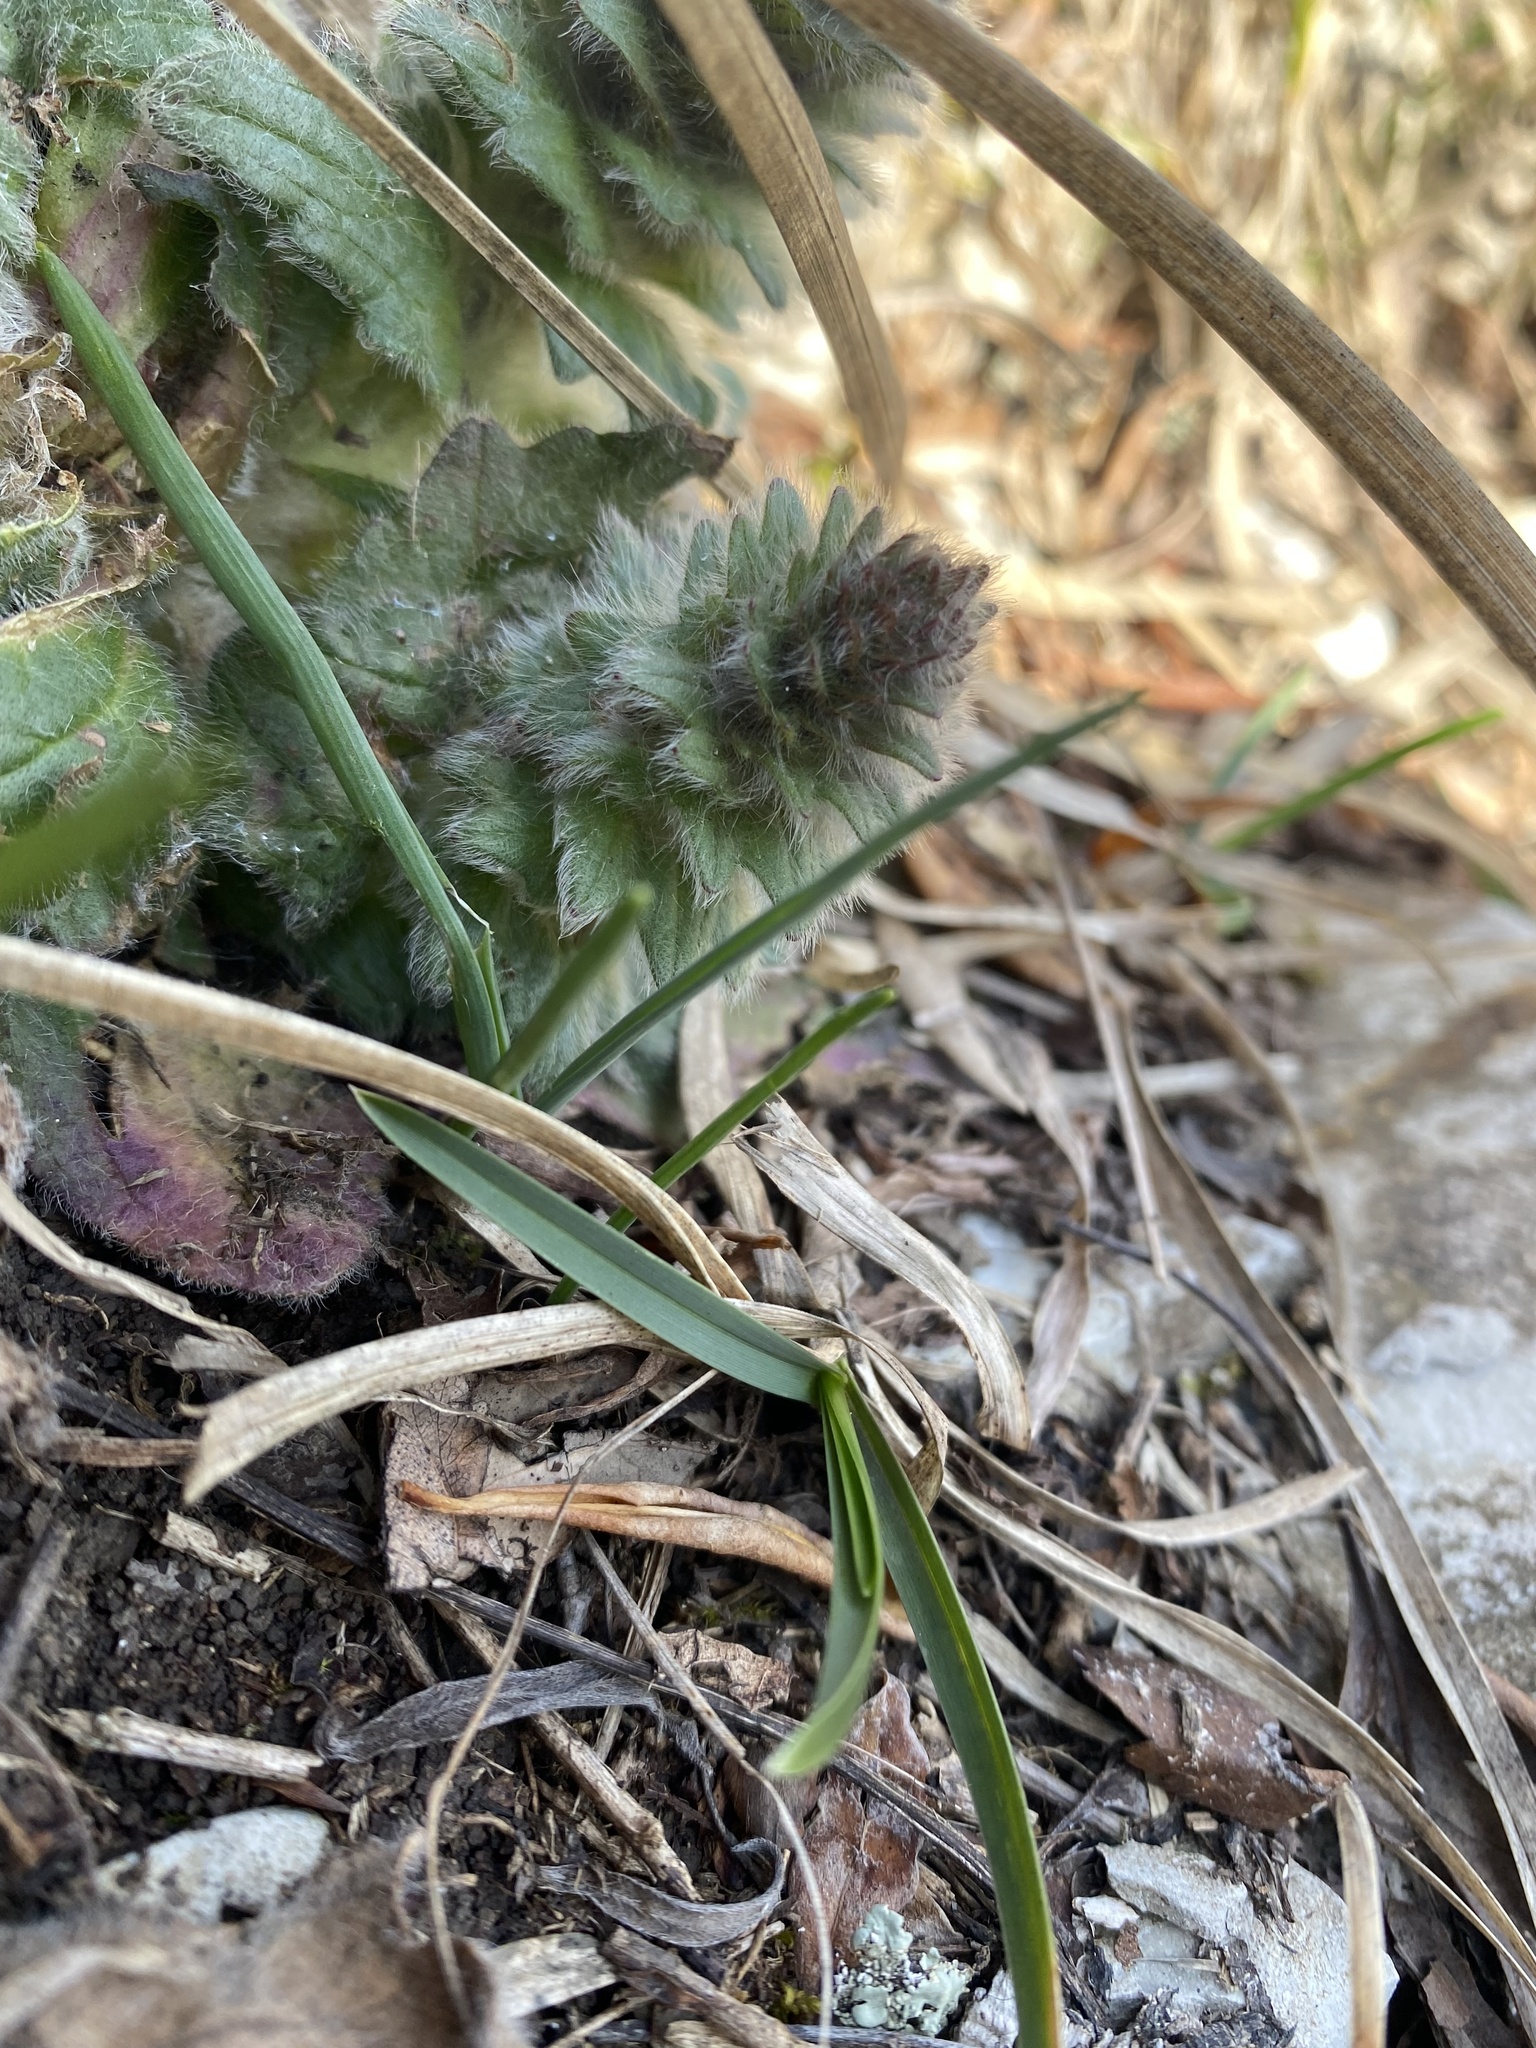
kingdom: Plantae
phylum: Tracheophyta
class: Magnoliopsida
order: Lamiales
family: Lamiaceae
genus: Ajuga
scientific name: Ajuga orientalis
